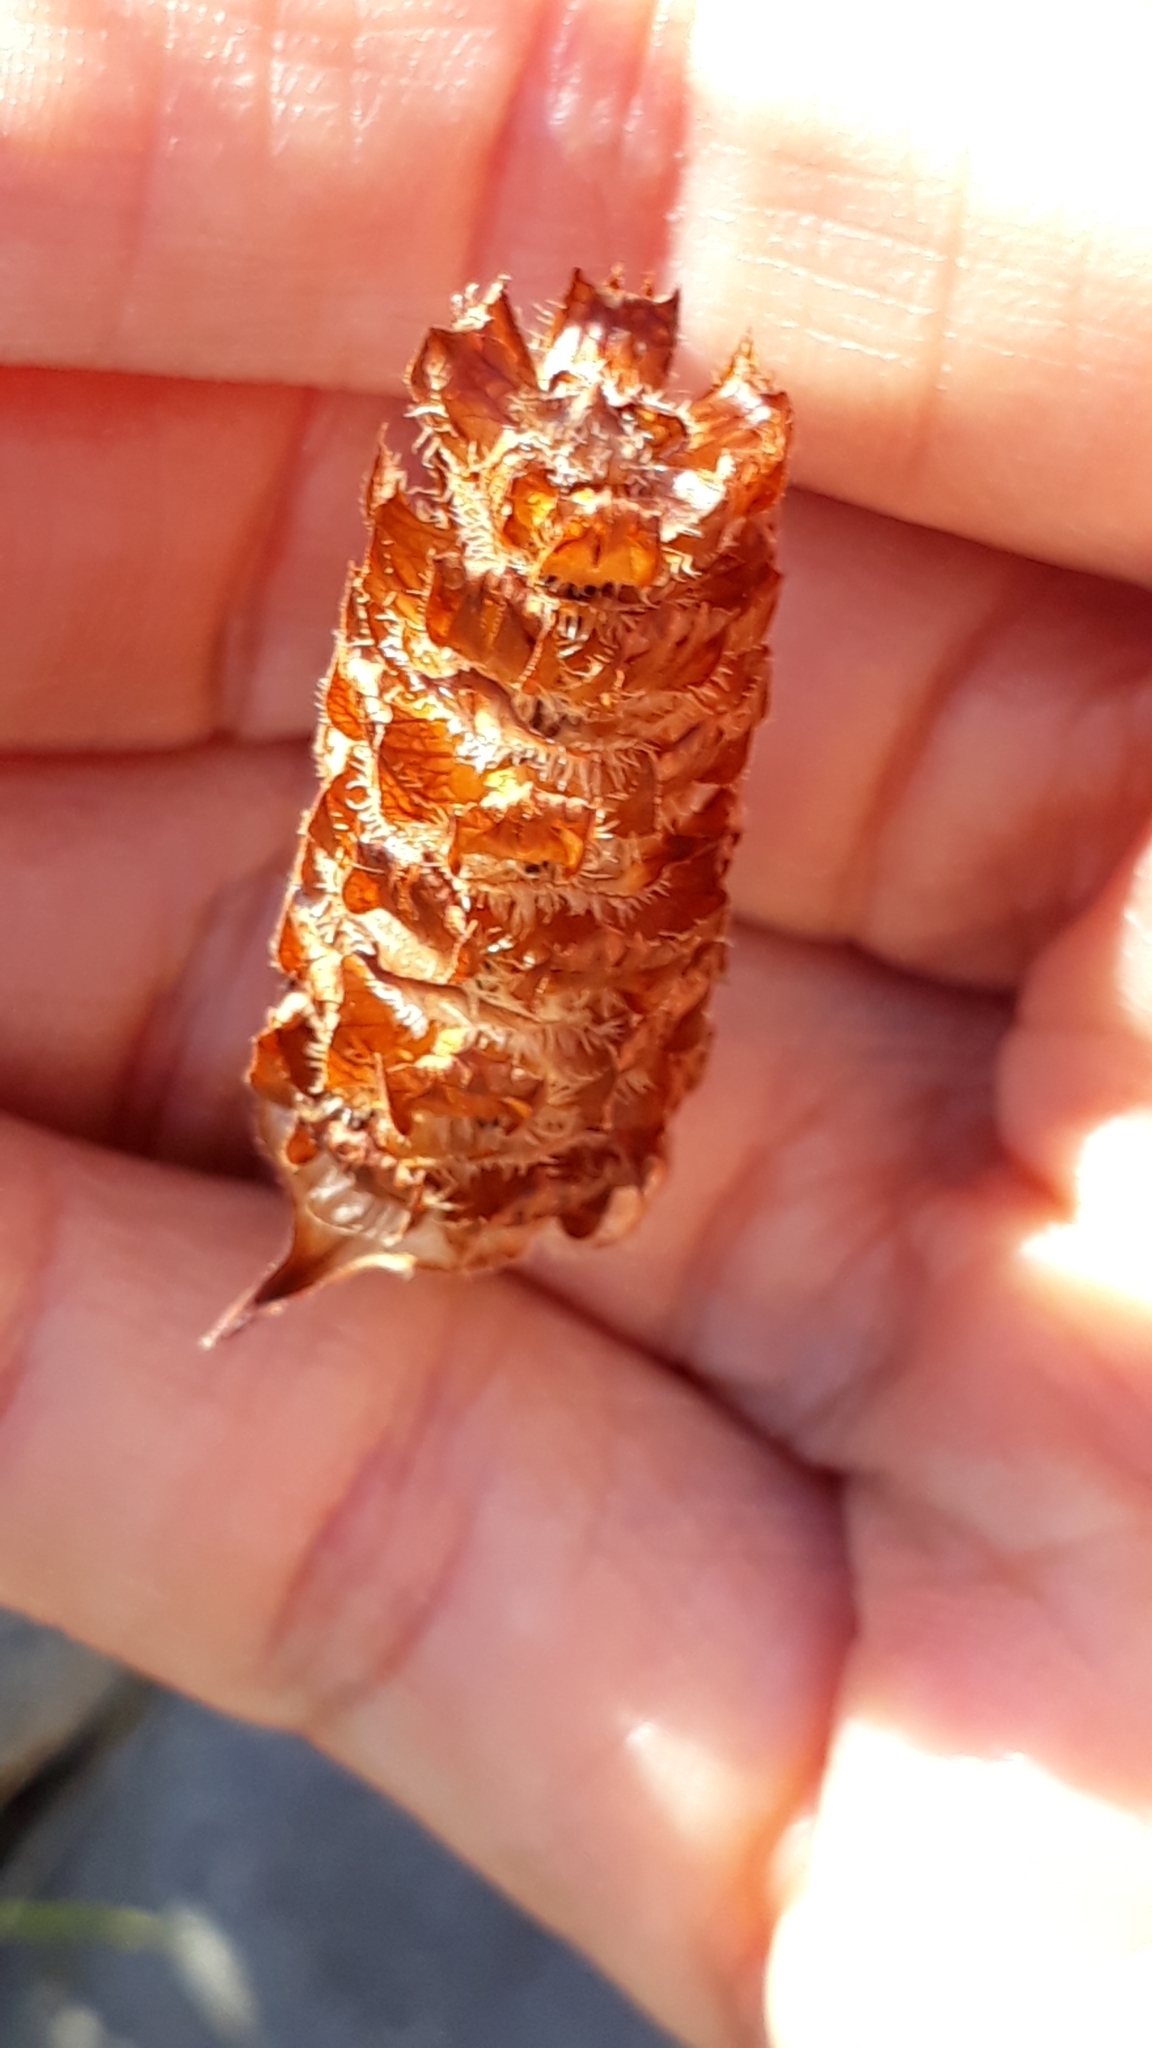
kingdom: Plantae
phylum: Tracheophyta
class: Magnoliopsida
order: Lamiales
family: Lamiaceae
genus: Prunella
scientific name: Prunella vulgaris
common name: Heal-all
